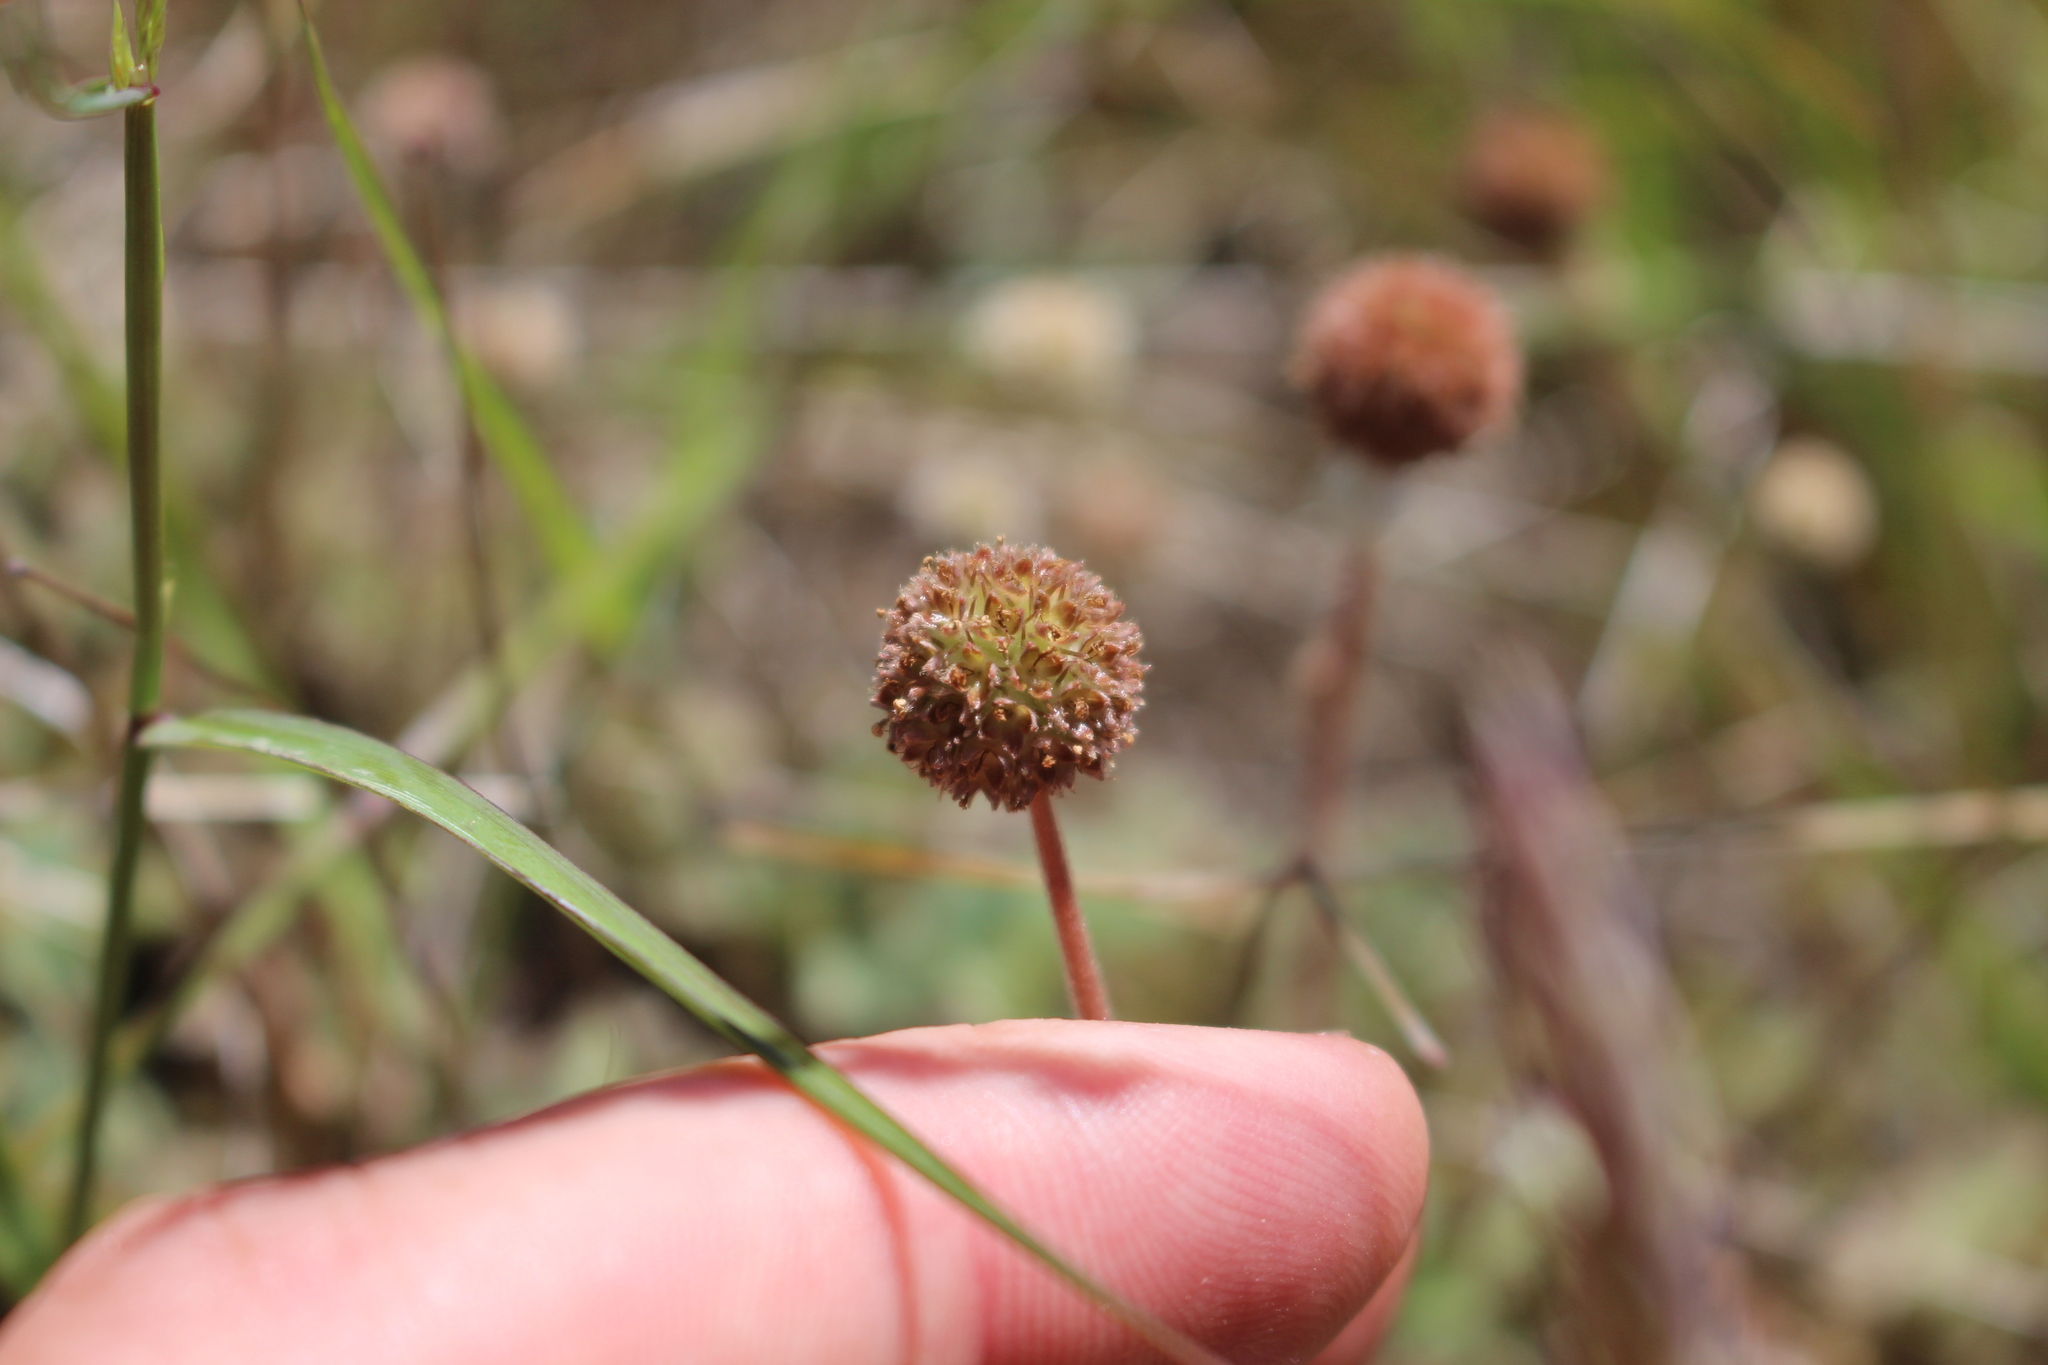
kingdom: Plantae
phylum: Tracheophyta
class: Magnoliopsida
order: Rosales
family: Rosaceae
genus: Acaena
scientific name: Acaena caesiiglauca
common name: Glaucous pirri-pirri-bur
